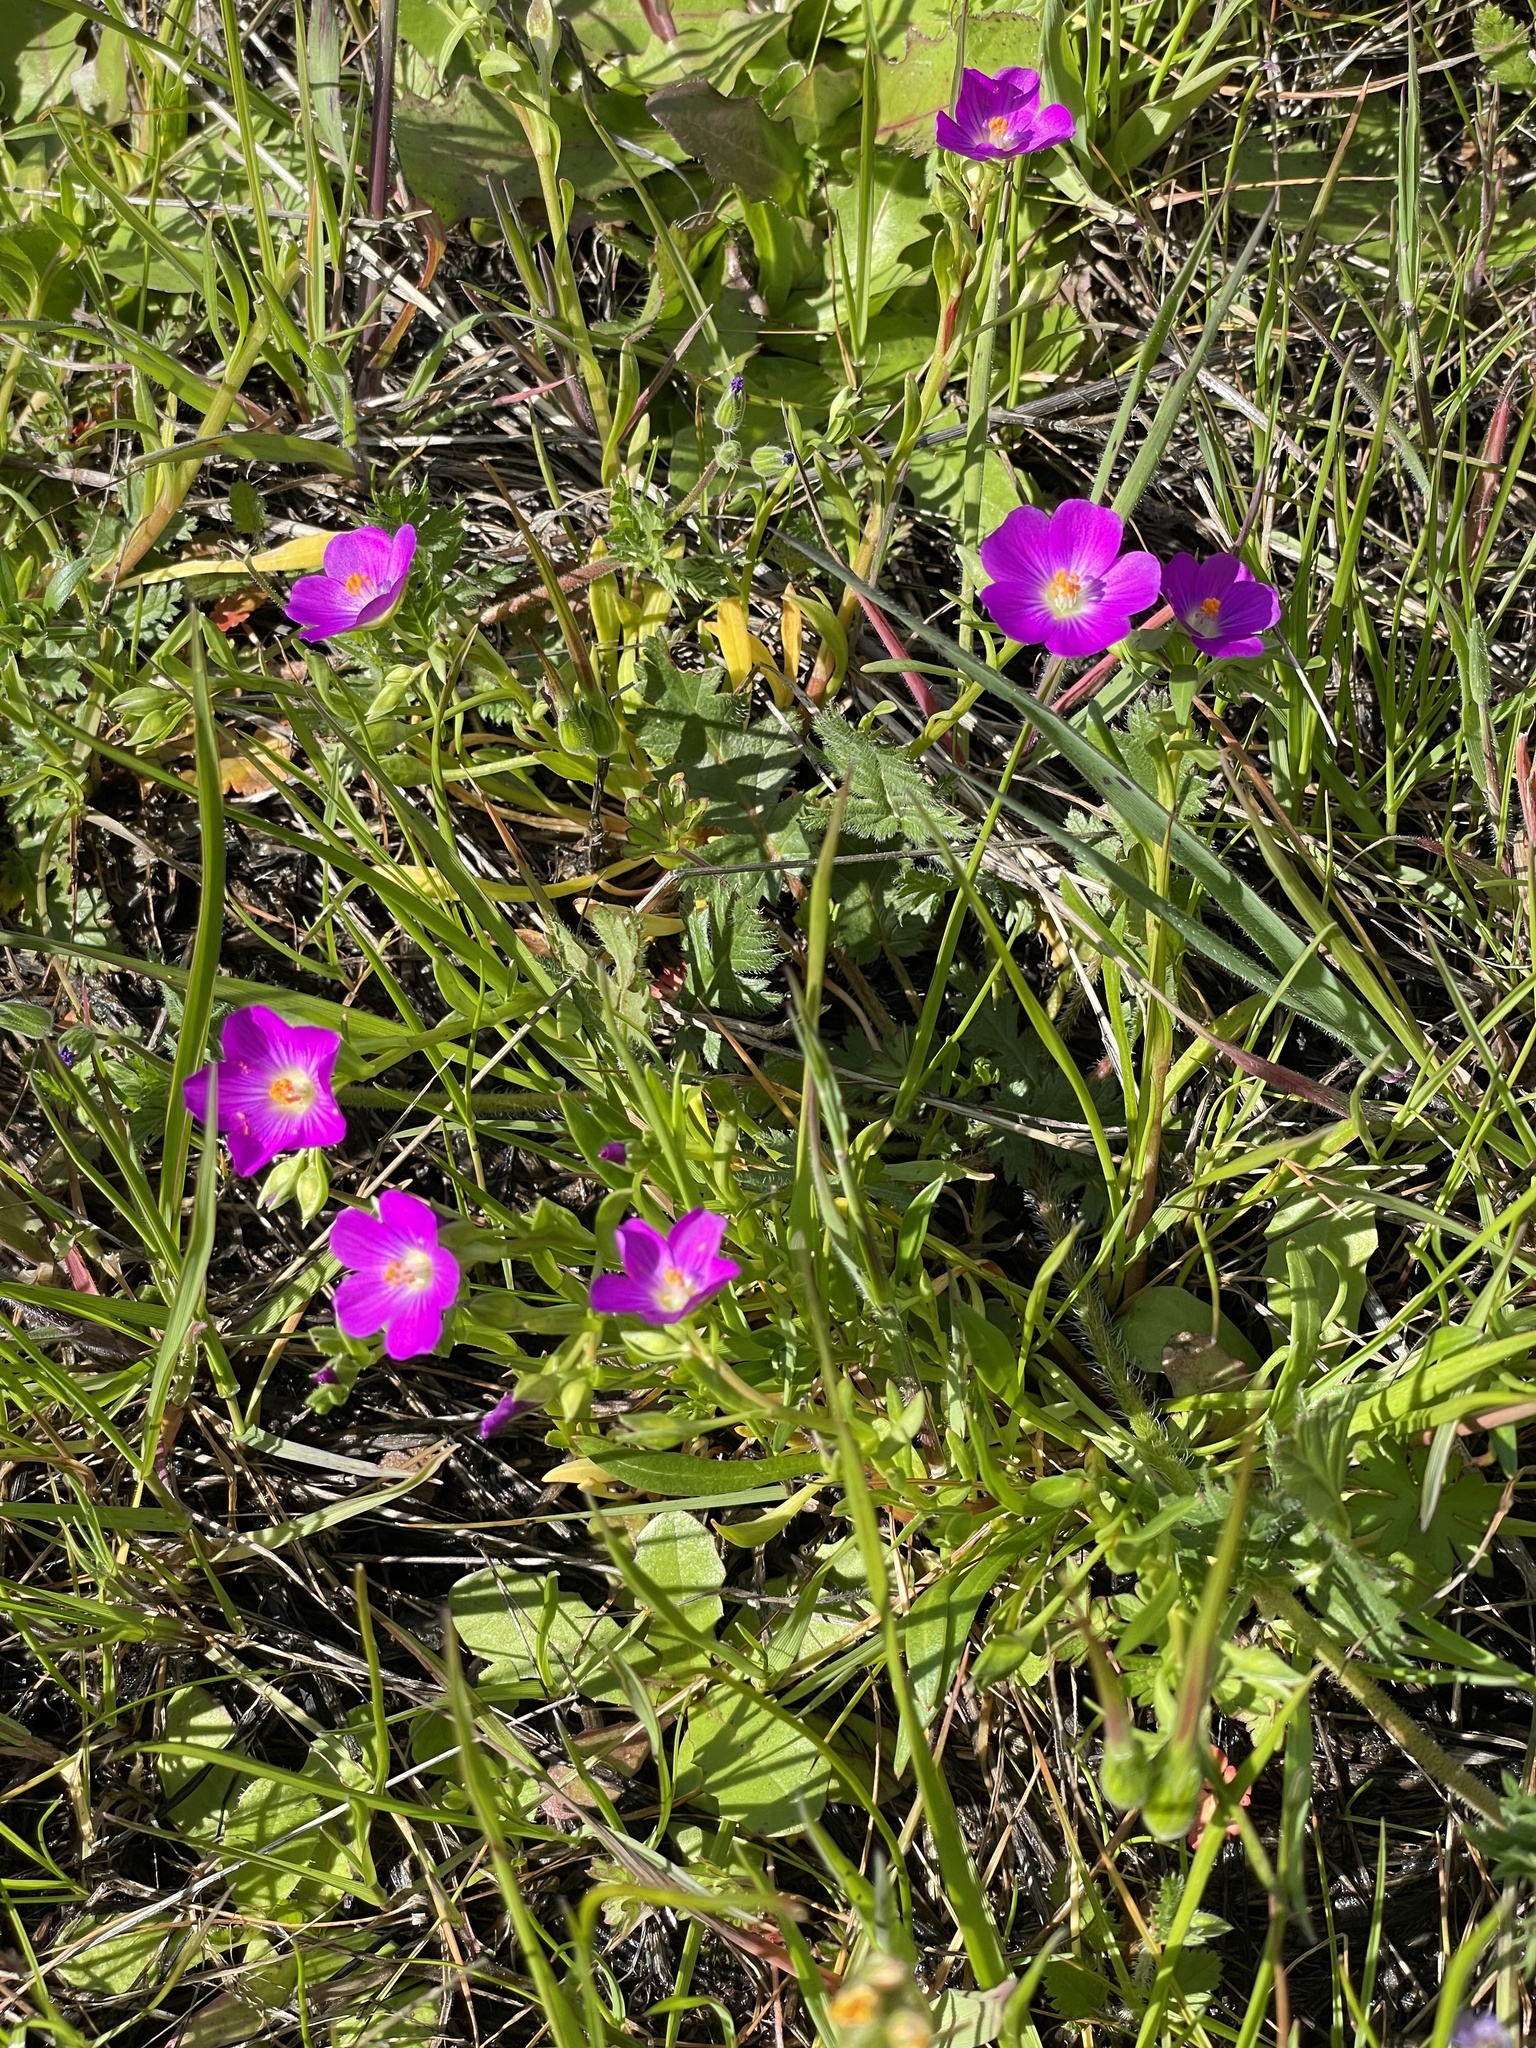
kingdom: Plantae
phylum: Tracheophyta
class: Magnoliopsida
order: Caryophyllales
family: Montiaceae
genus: Calandrinia
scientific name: Calandrinia menziesii
